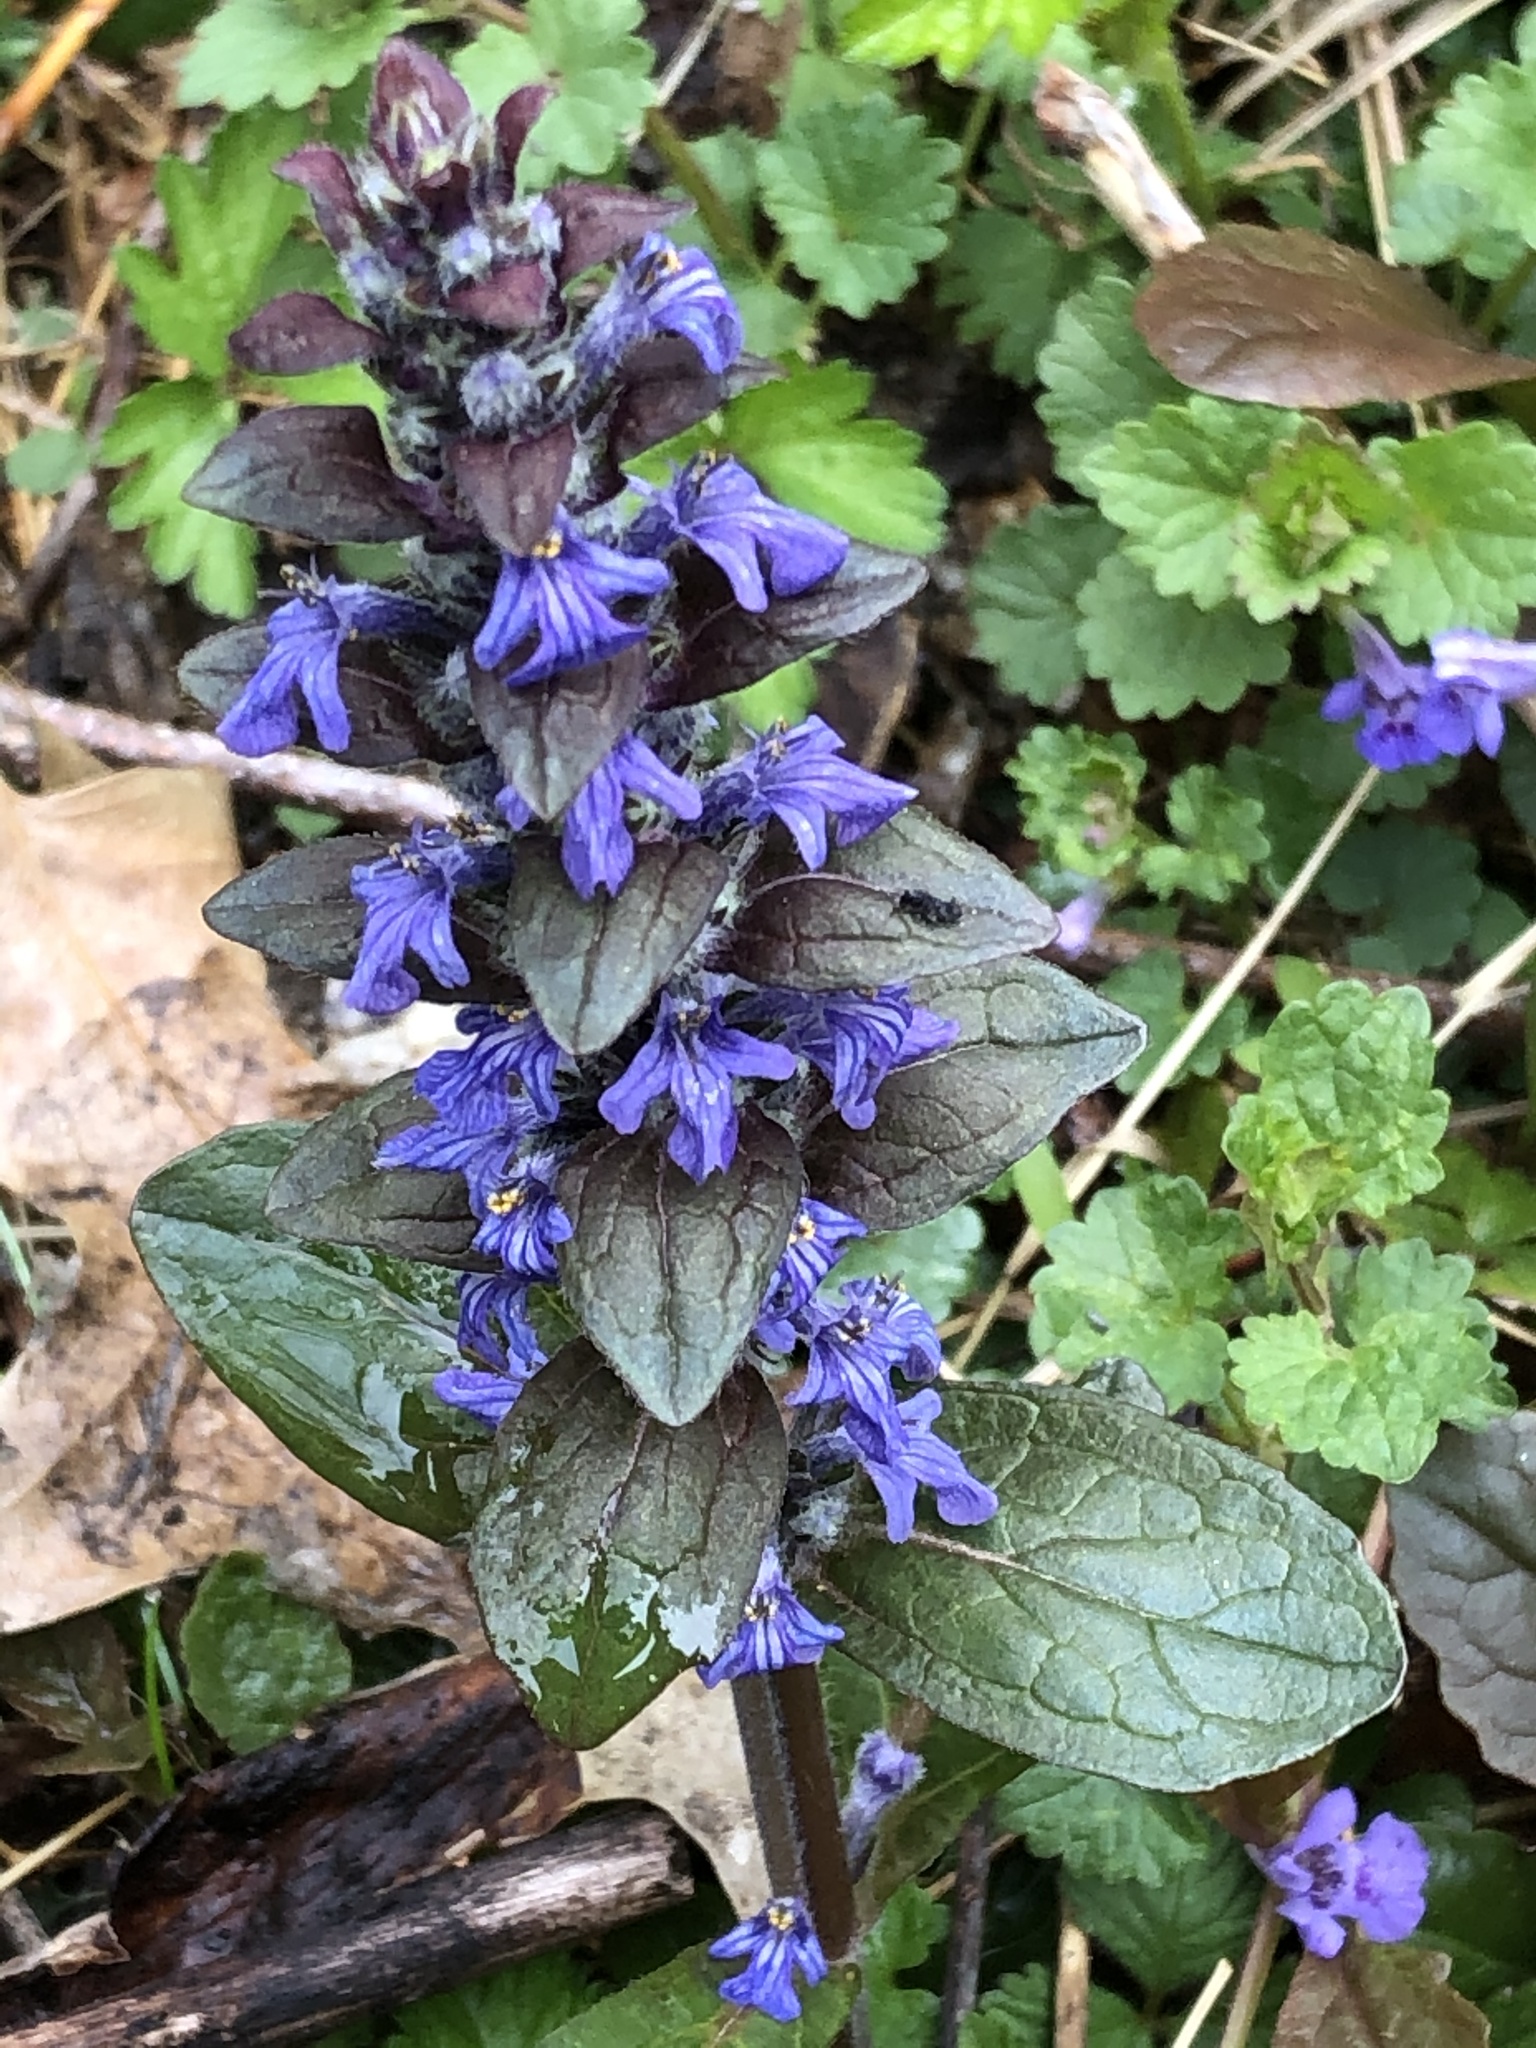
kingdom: Plantae
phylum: Tracheophyta
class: Magnoliopsida
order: Lamiales
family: Lamiaceae
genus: Ajuga
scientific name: Ajuga reptans
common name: Bugle
